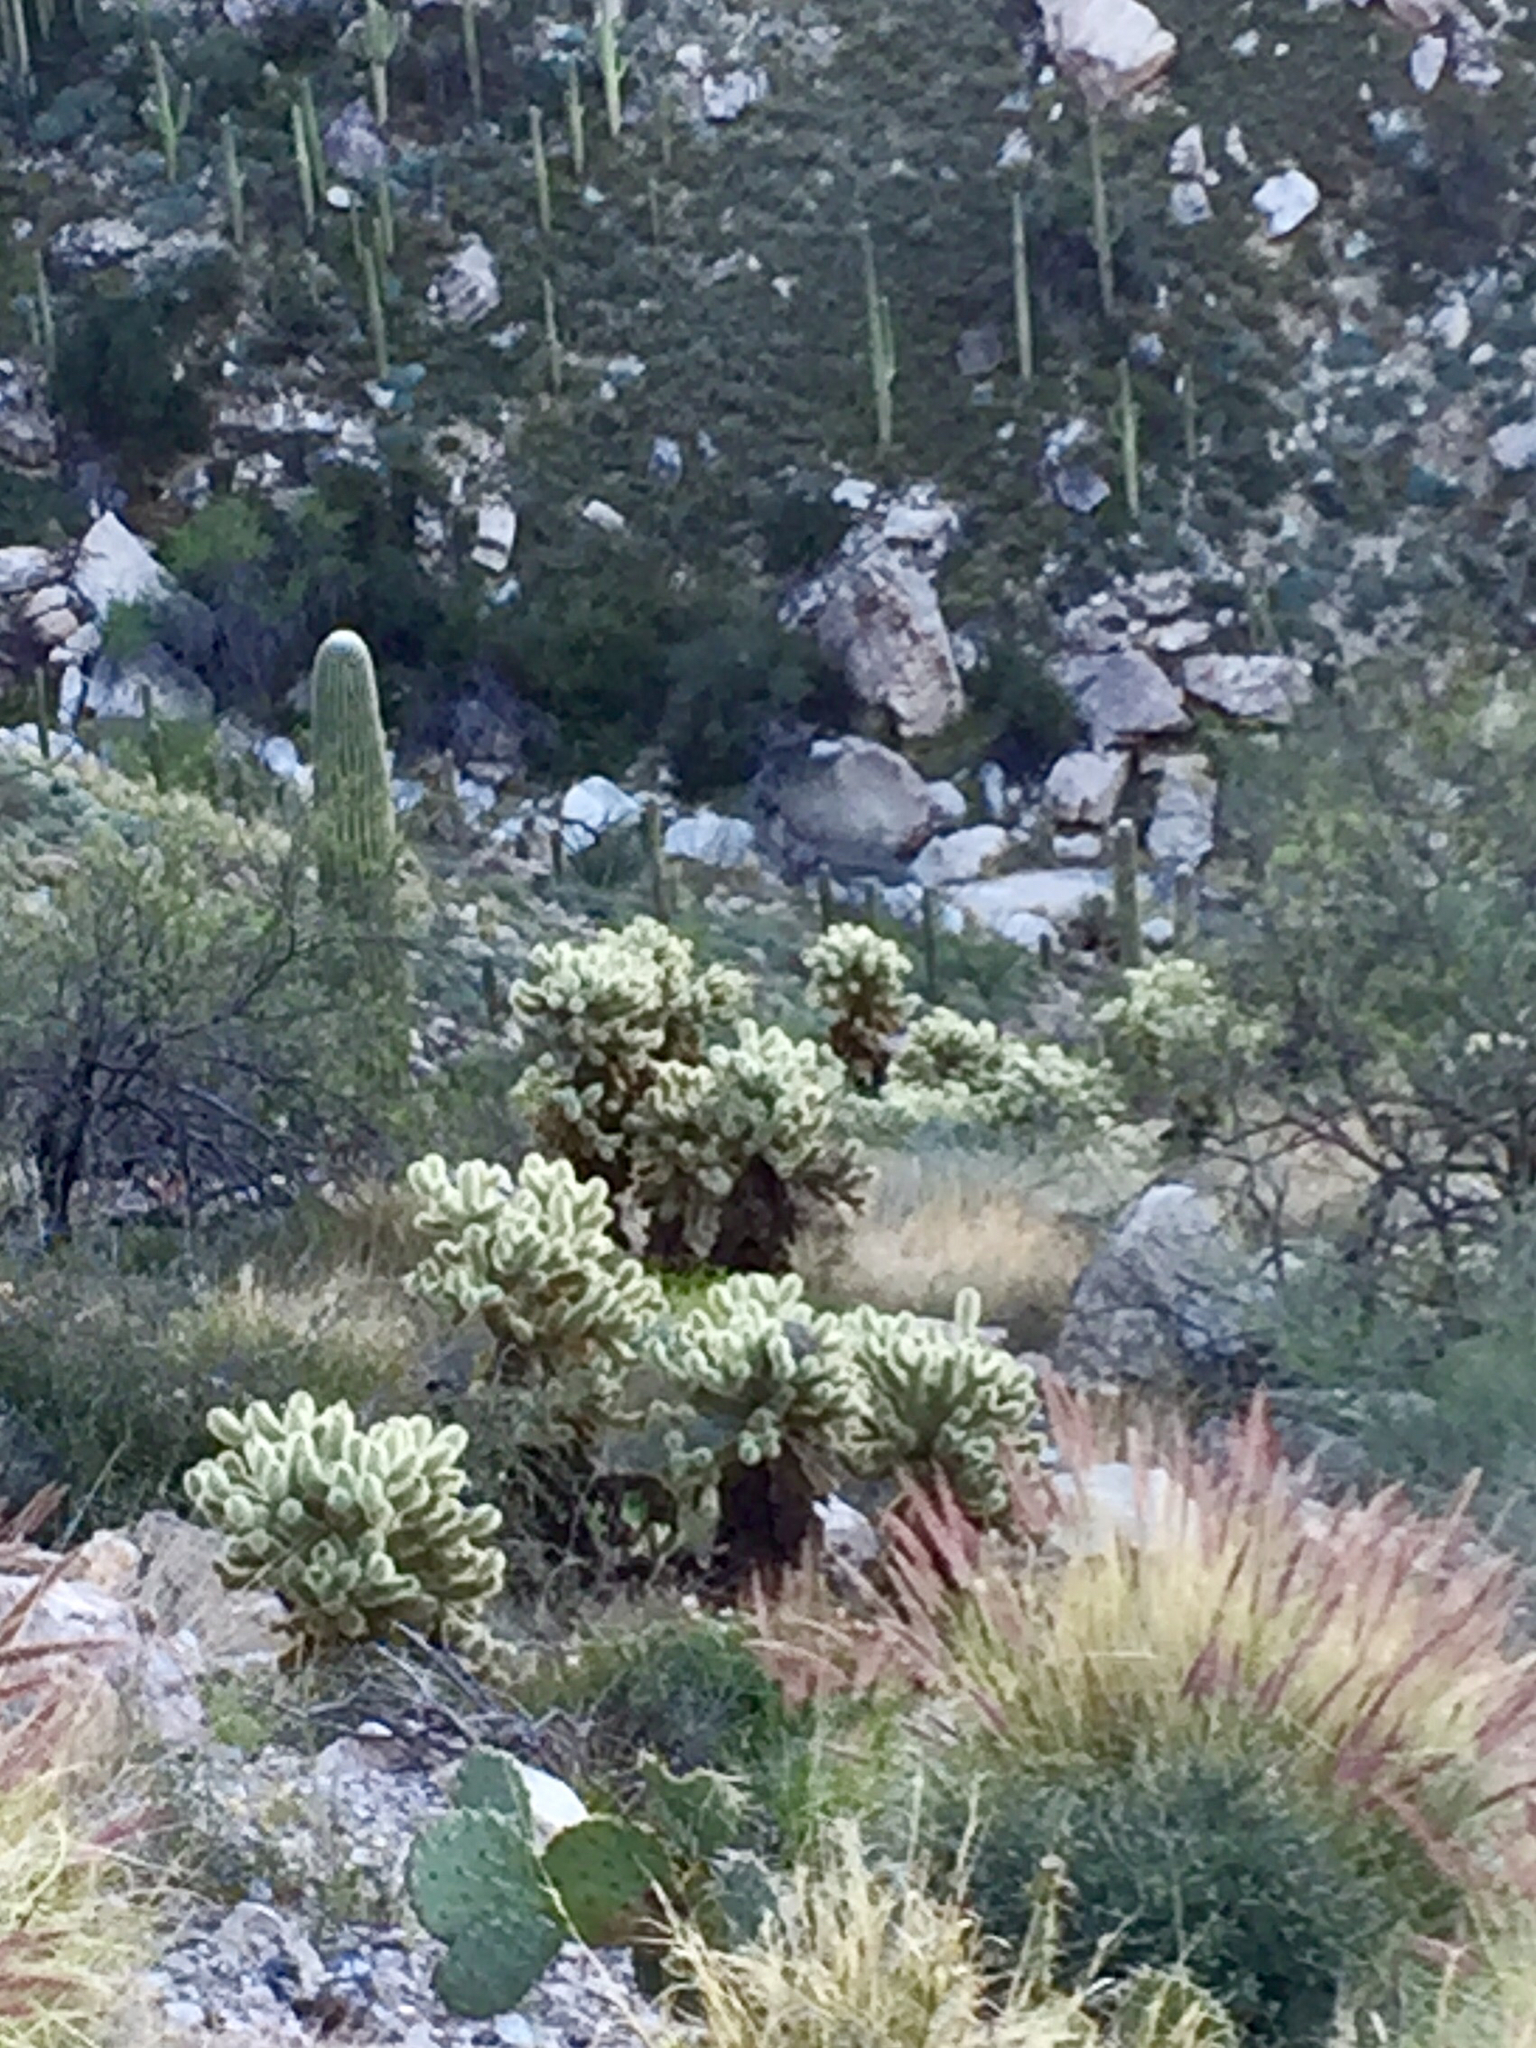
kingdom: Plantae
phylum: Tracheophyta
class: Magnoliopsida
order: Caryophyllales
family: Cactaceae
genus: Cylindropuntia
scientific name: Cylindropuntia fosbergii
